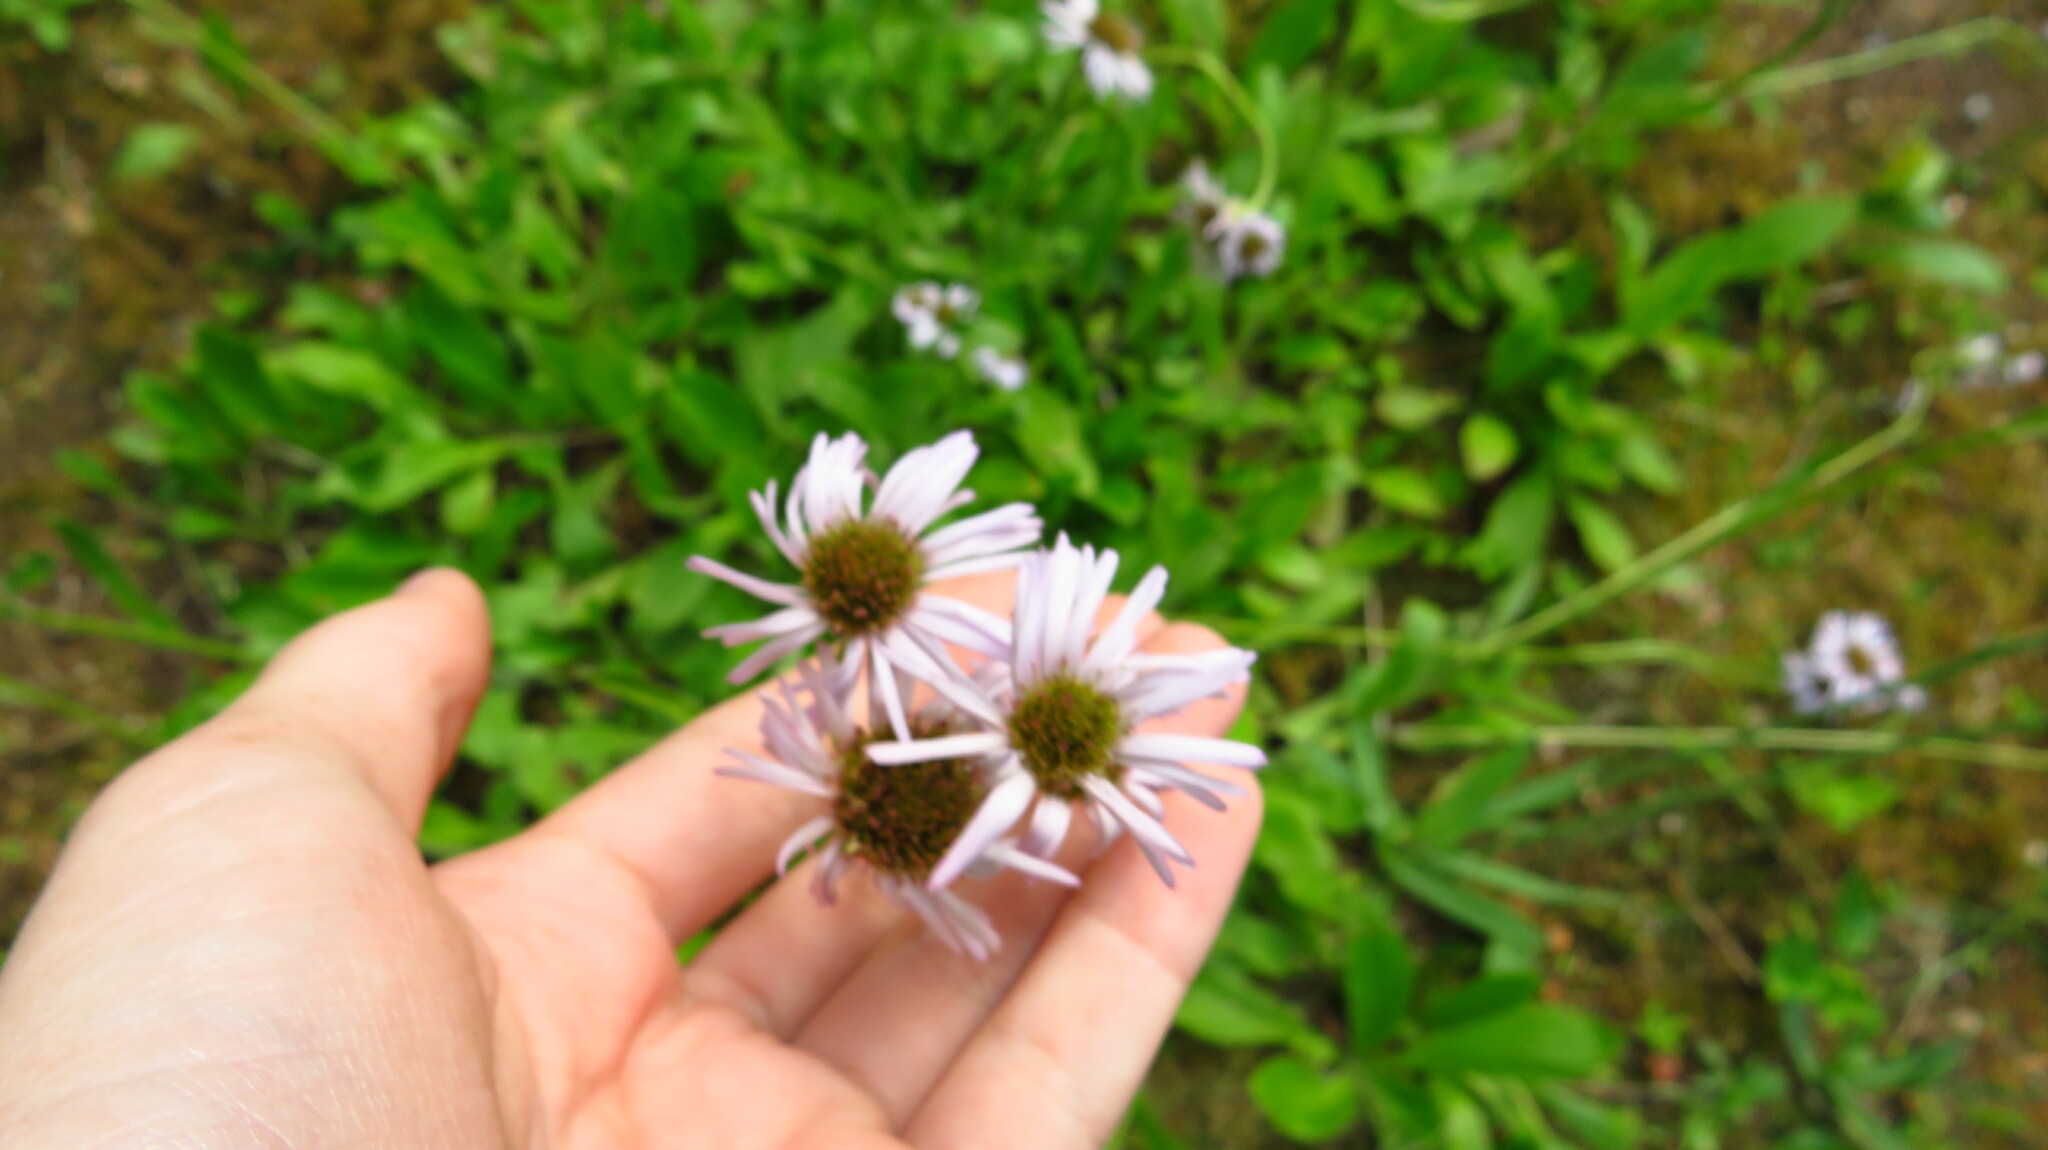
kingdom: Plantae
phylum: Tracheophyta
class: Magnoliopsida
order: Asterales
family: Asteraceae
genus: Erigeron
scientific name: Erigeron pulchellus
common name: Hairy fleabane
